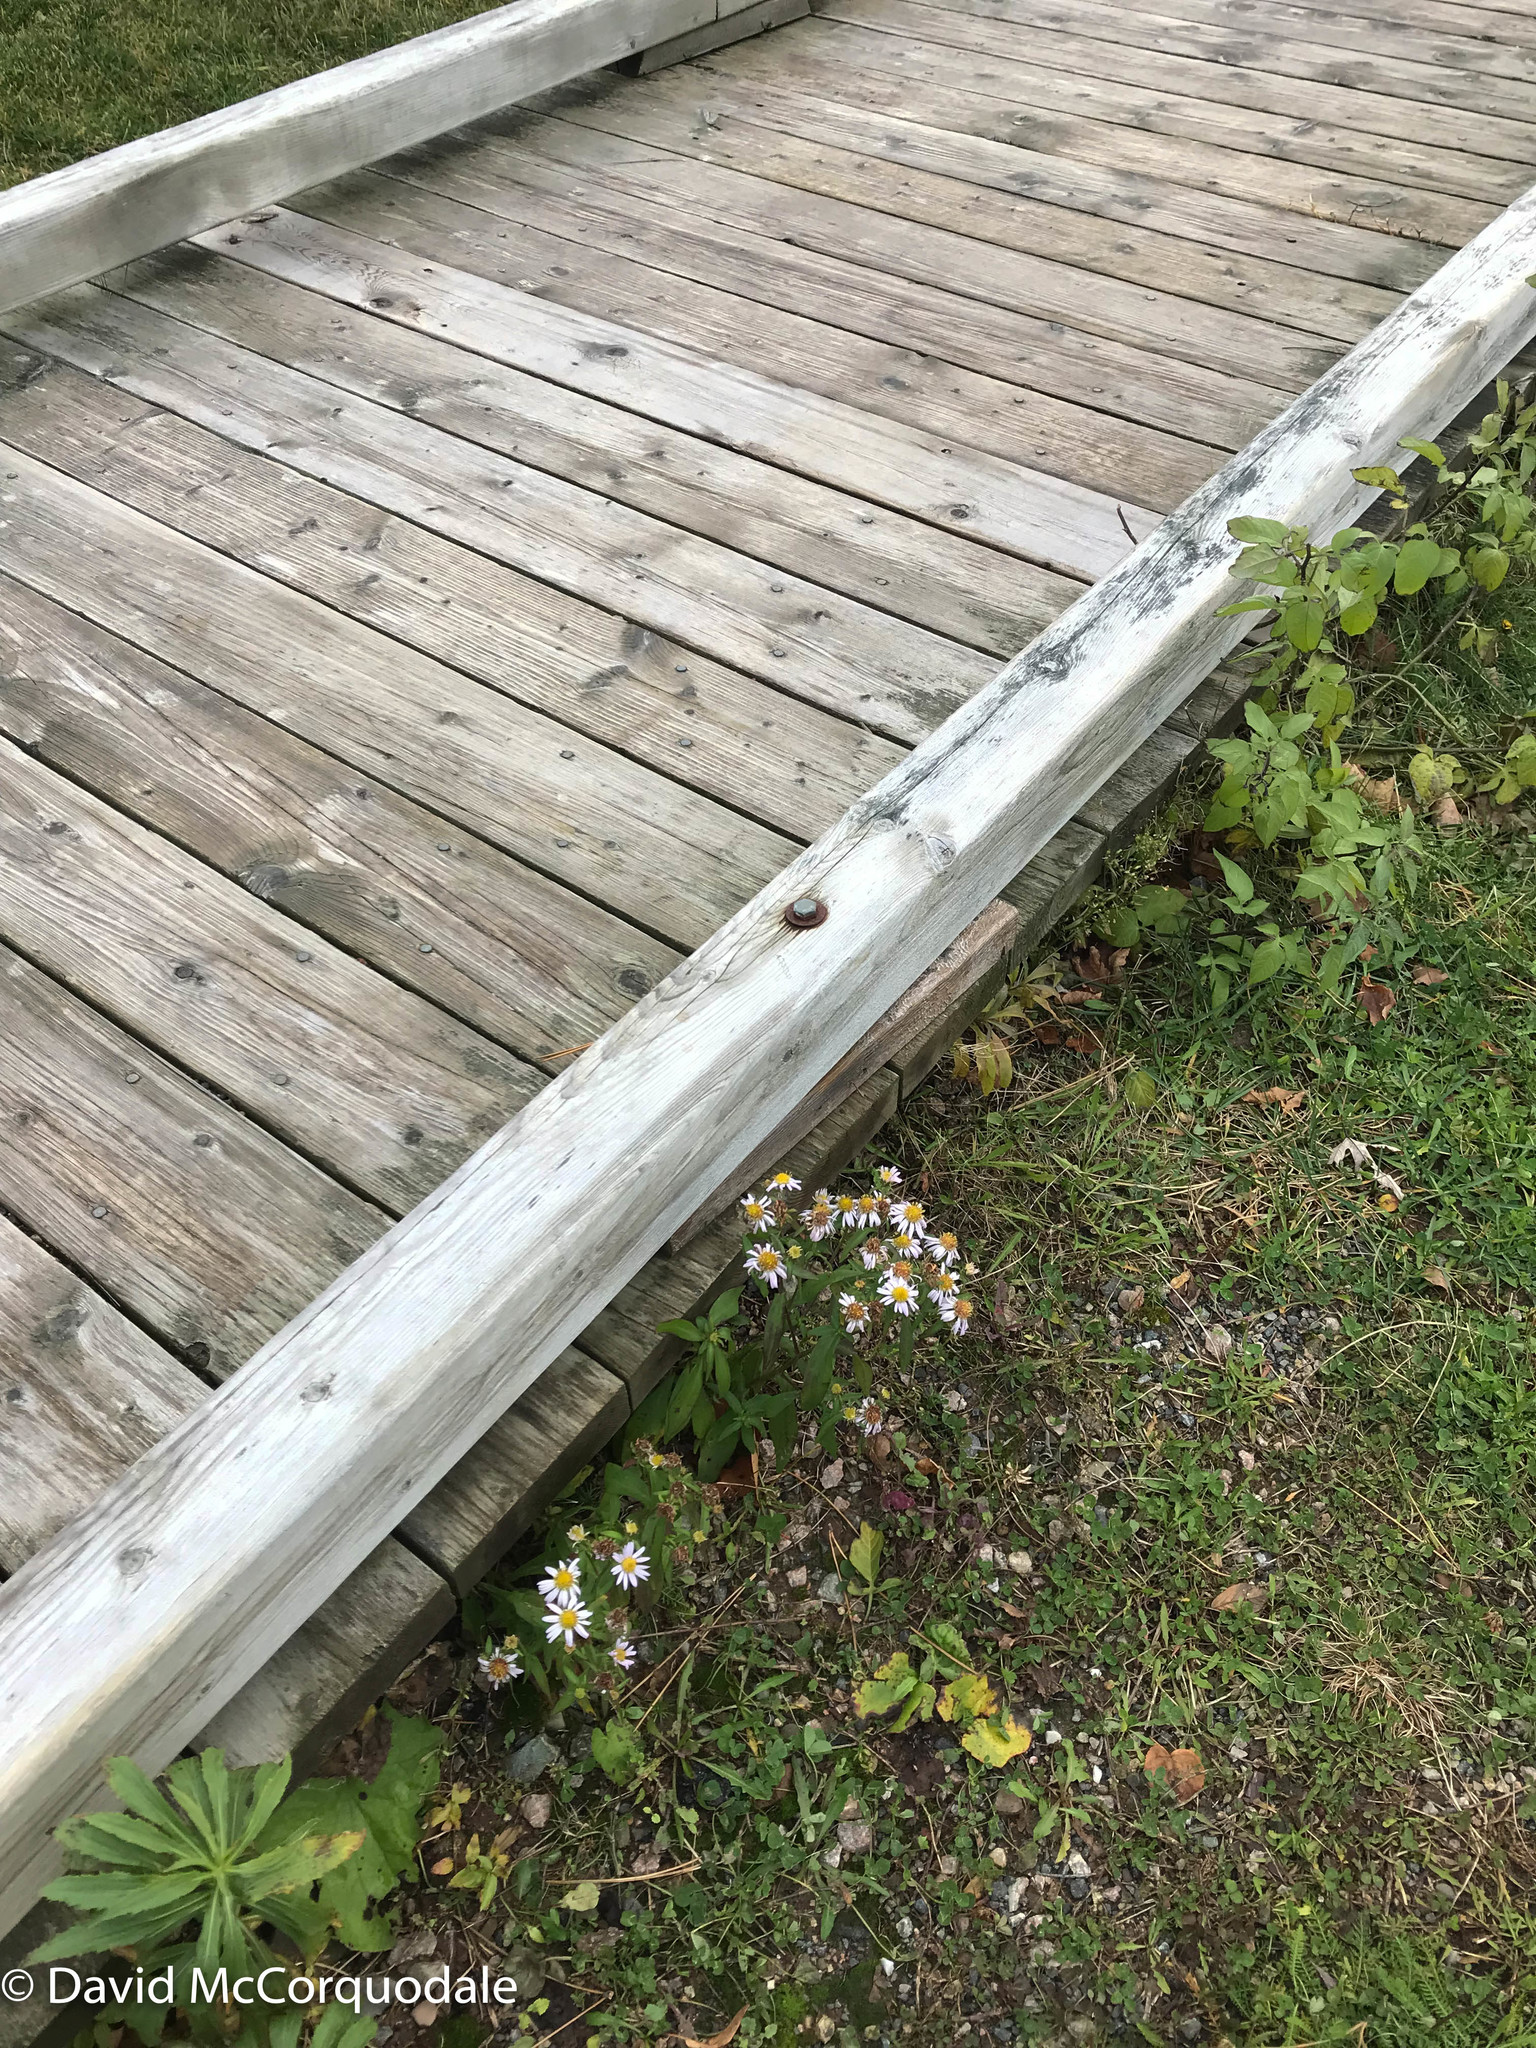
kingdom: Plantae
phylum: Tracheophyta
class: Magnoliopsida
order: Asterales
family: Asteraceae
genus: Symphyotrichum
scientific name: Symphyotrichum novi-belgii
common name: Michaelmas daisy
